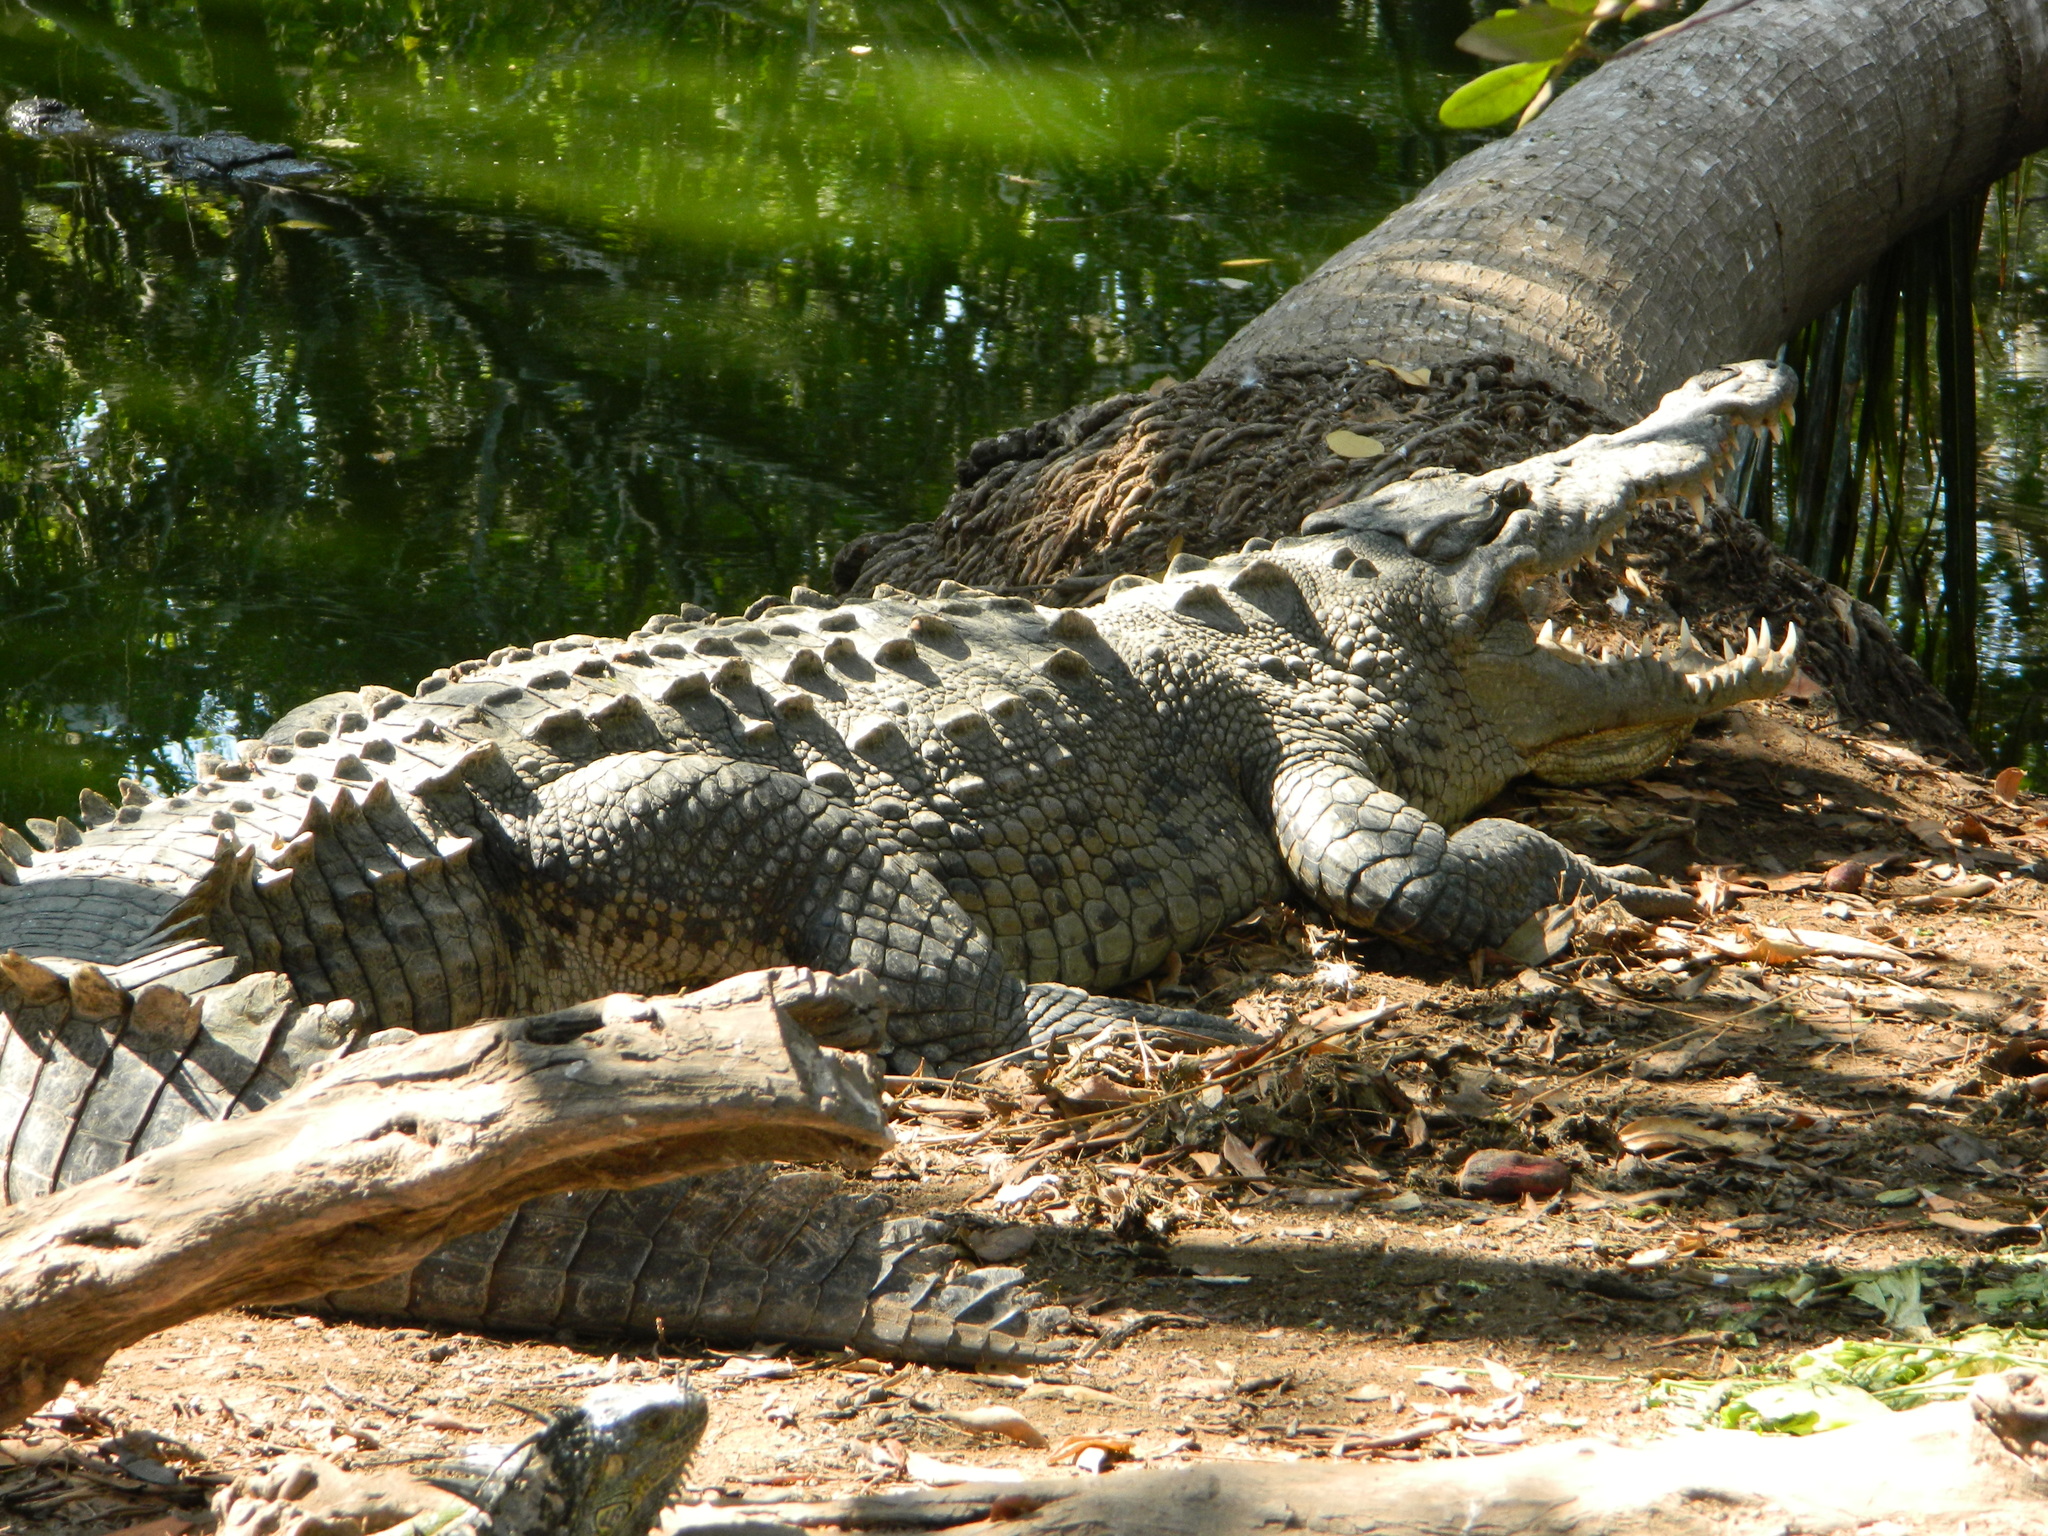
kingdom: Animalia
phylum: Chordata
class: Crocodylia
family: Crocodylidae
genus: Crocodylus
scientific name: Crocodylus acutus
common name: American crocodile
